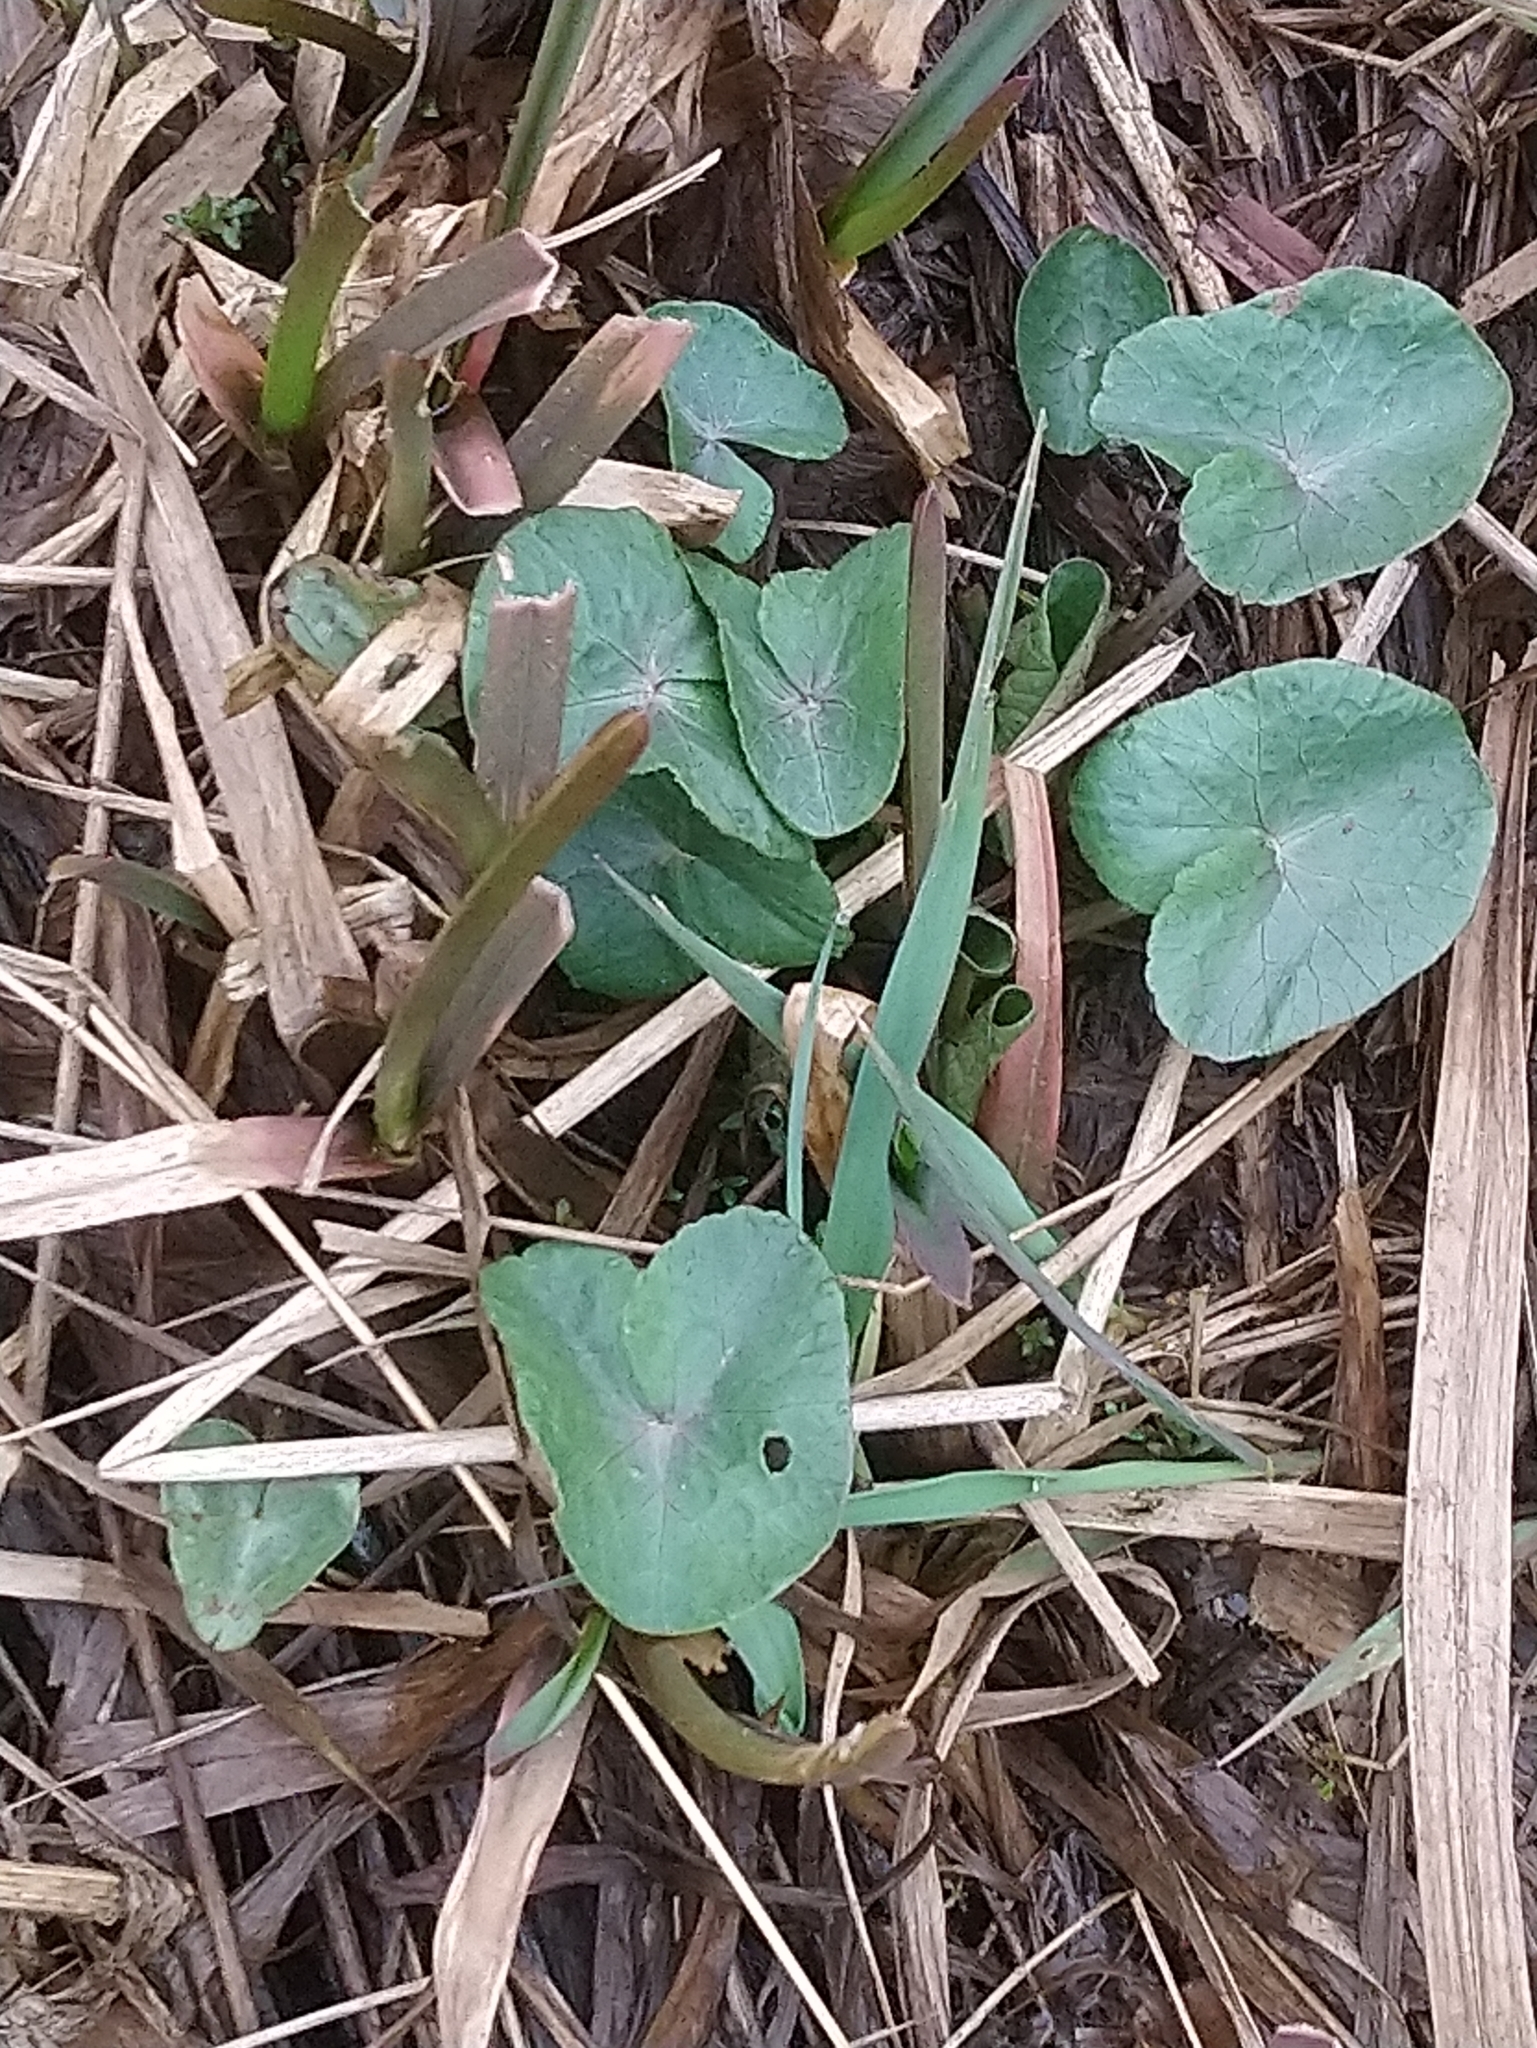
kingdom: Plantae
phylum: Tracheophyta
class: Magnoliopsida
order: Ranunculales
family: Ranunculaceae
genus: Caltha
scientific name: Caltha palustris
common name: Marsh marigold
